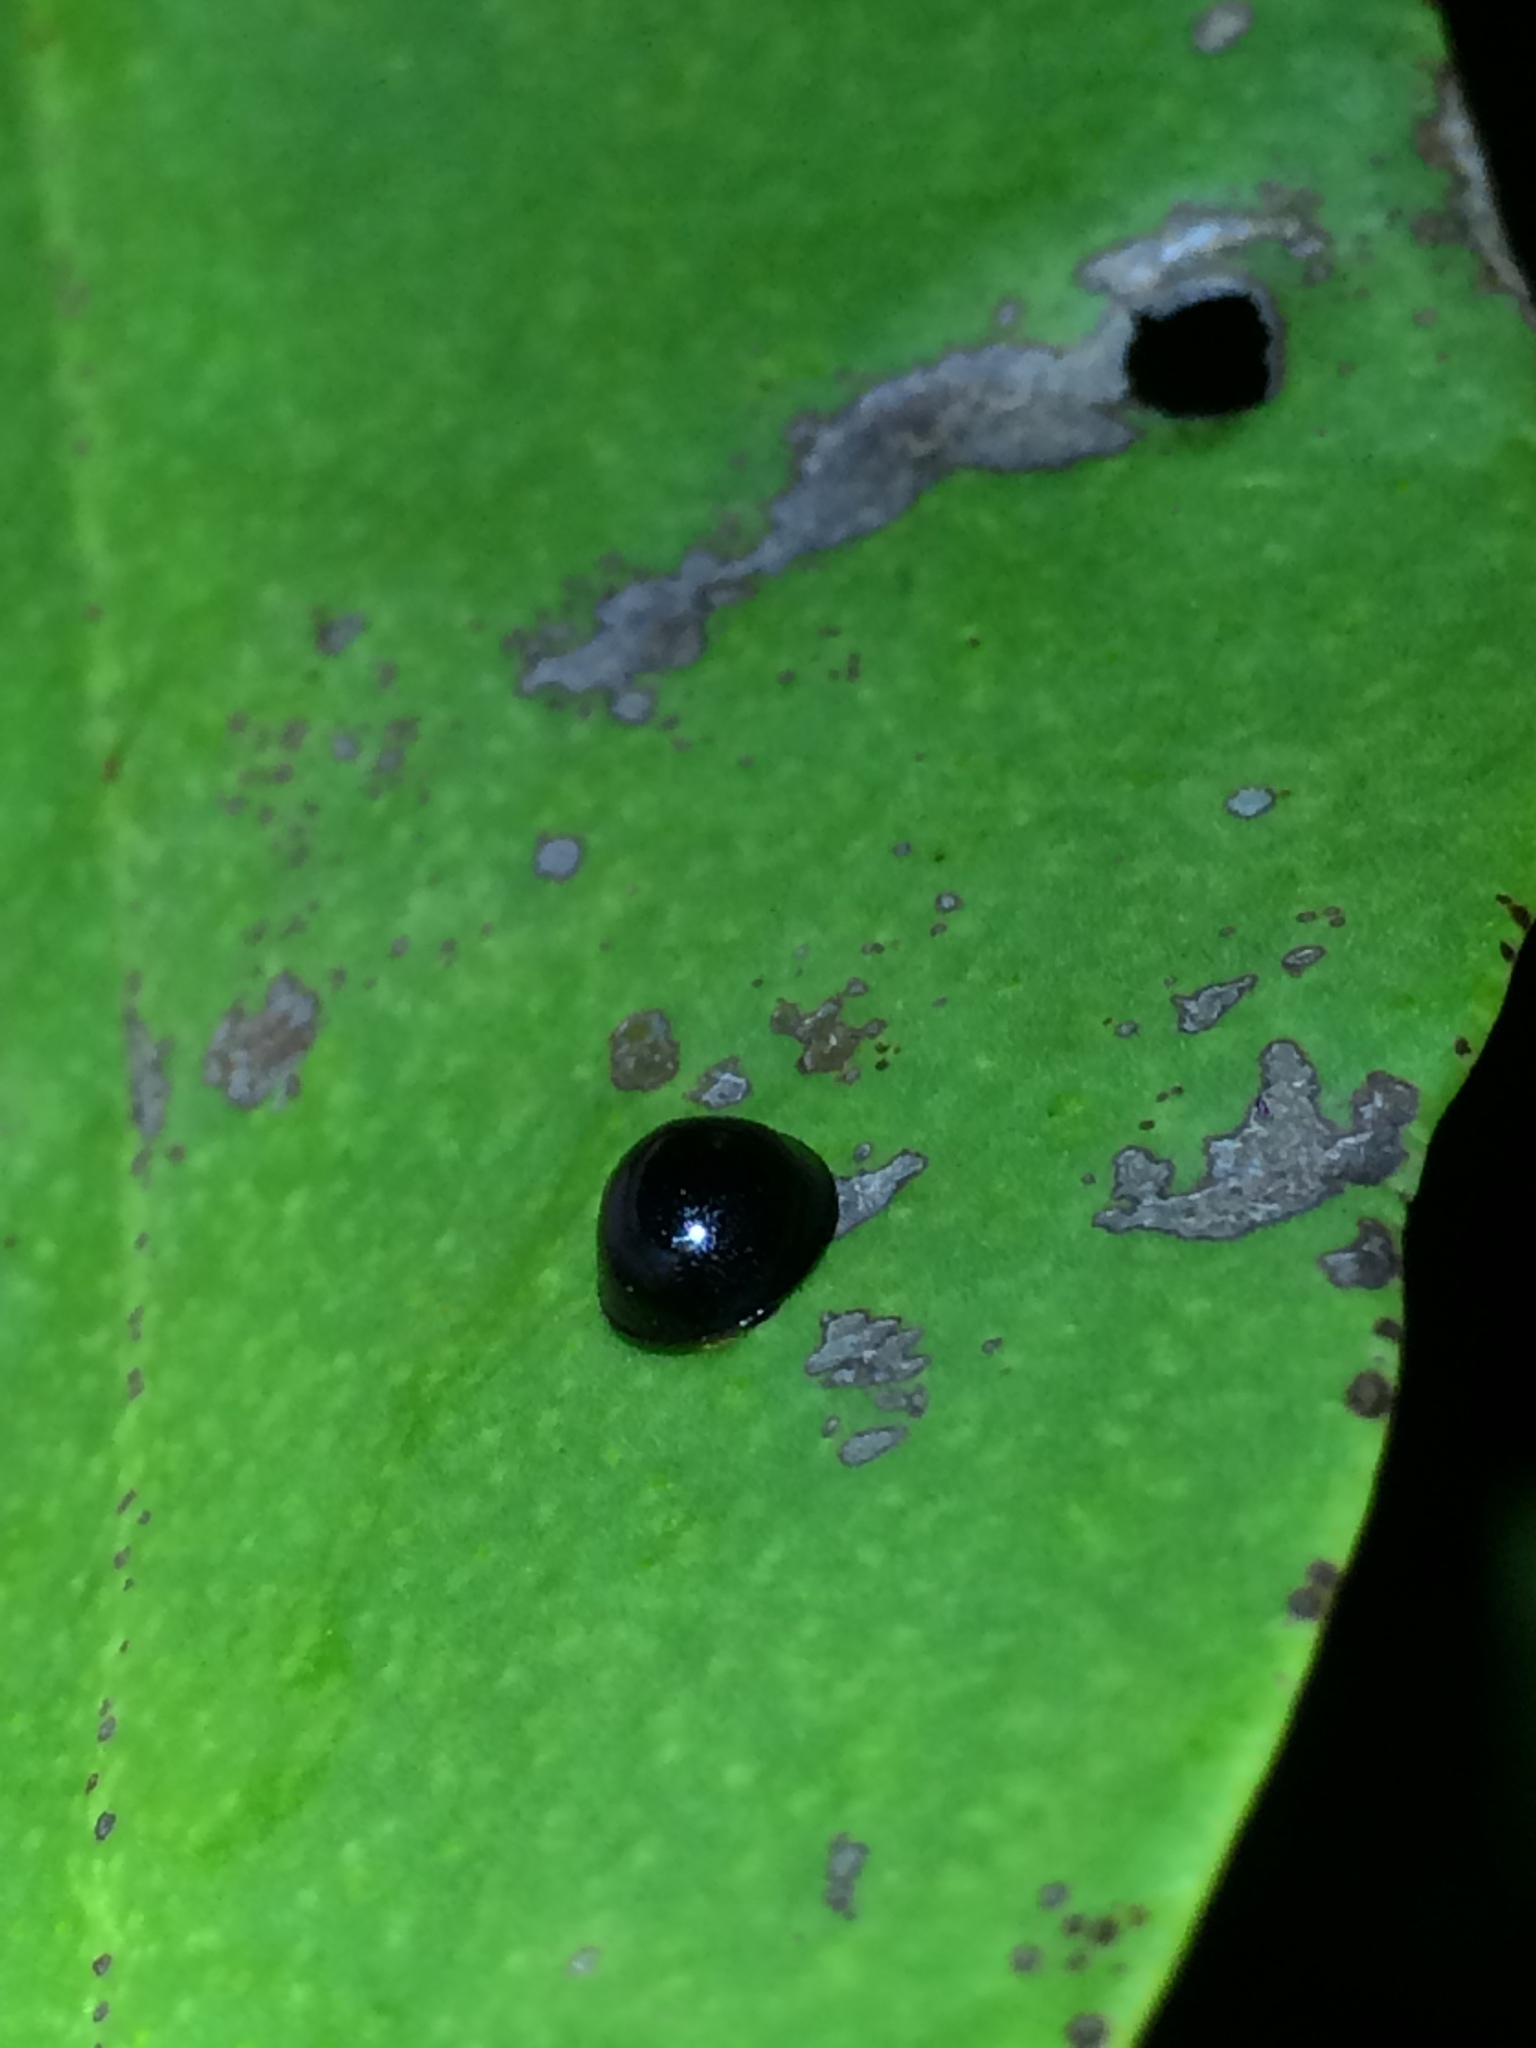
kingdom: Animalia
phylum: Arthropoda
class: Insecta
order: Coleoptera
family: Coccinellidae
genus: Chilocorus
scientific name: Chilocorus nigritus
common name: Ladybird beetle
